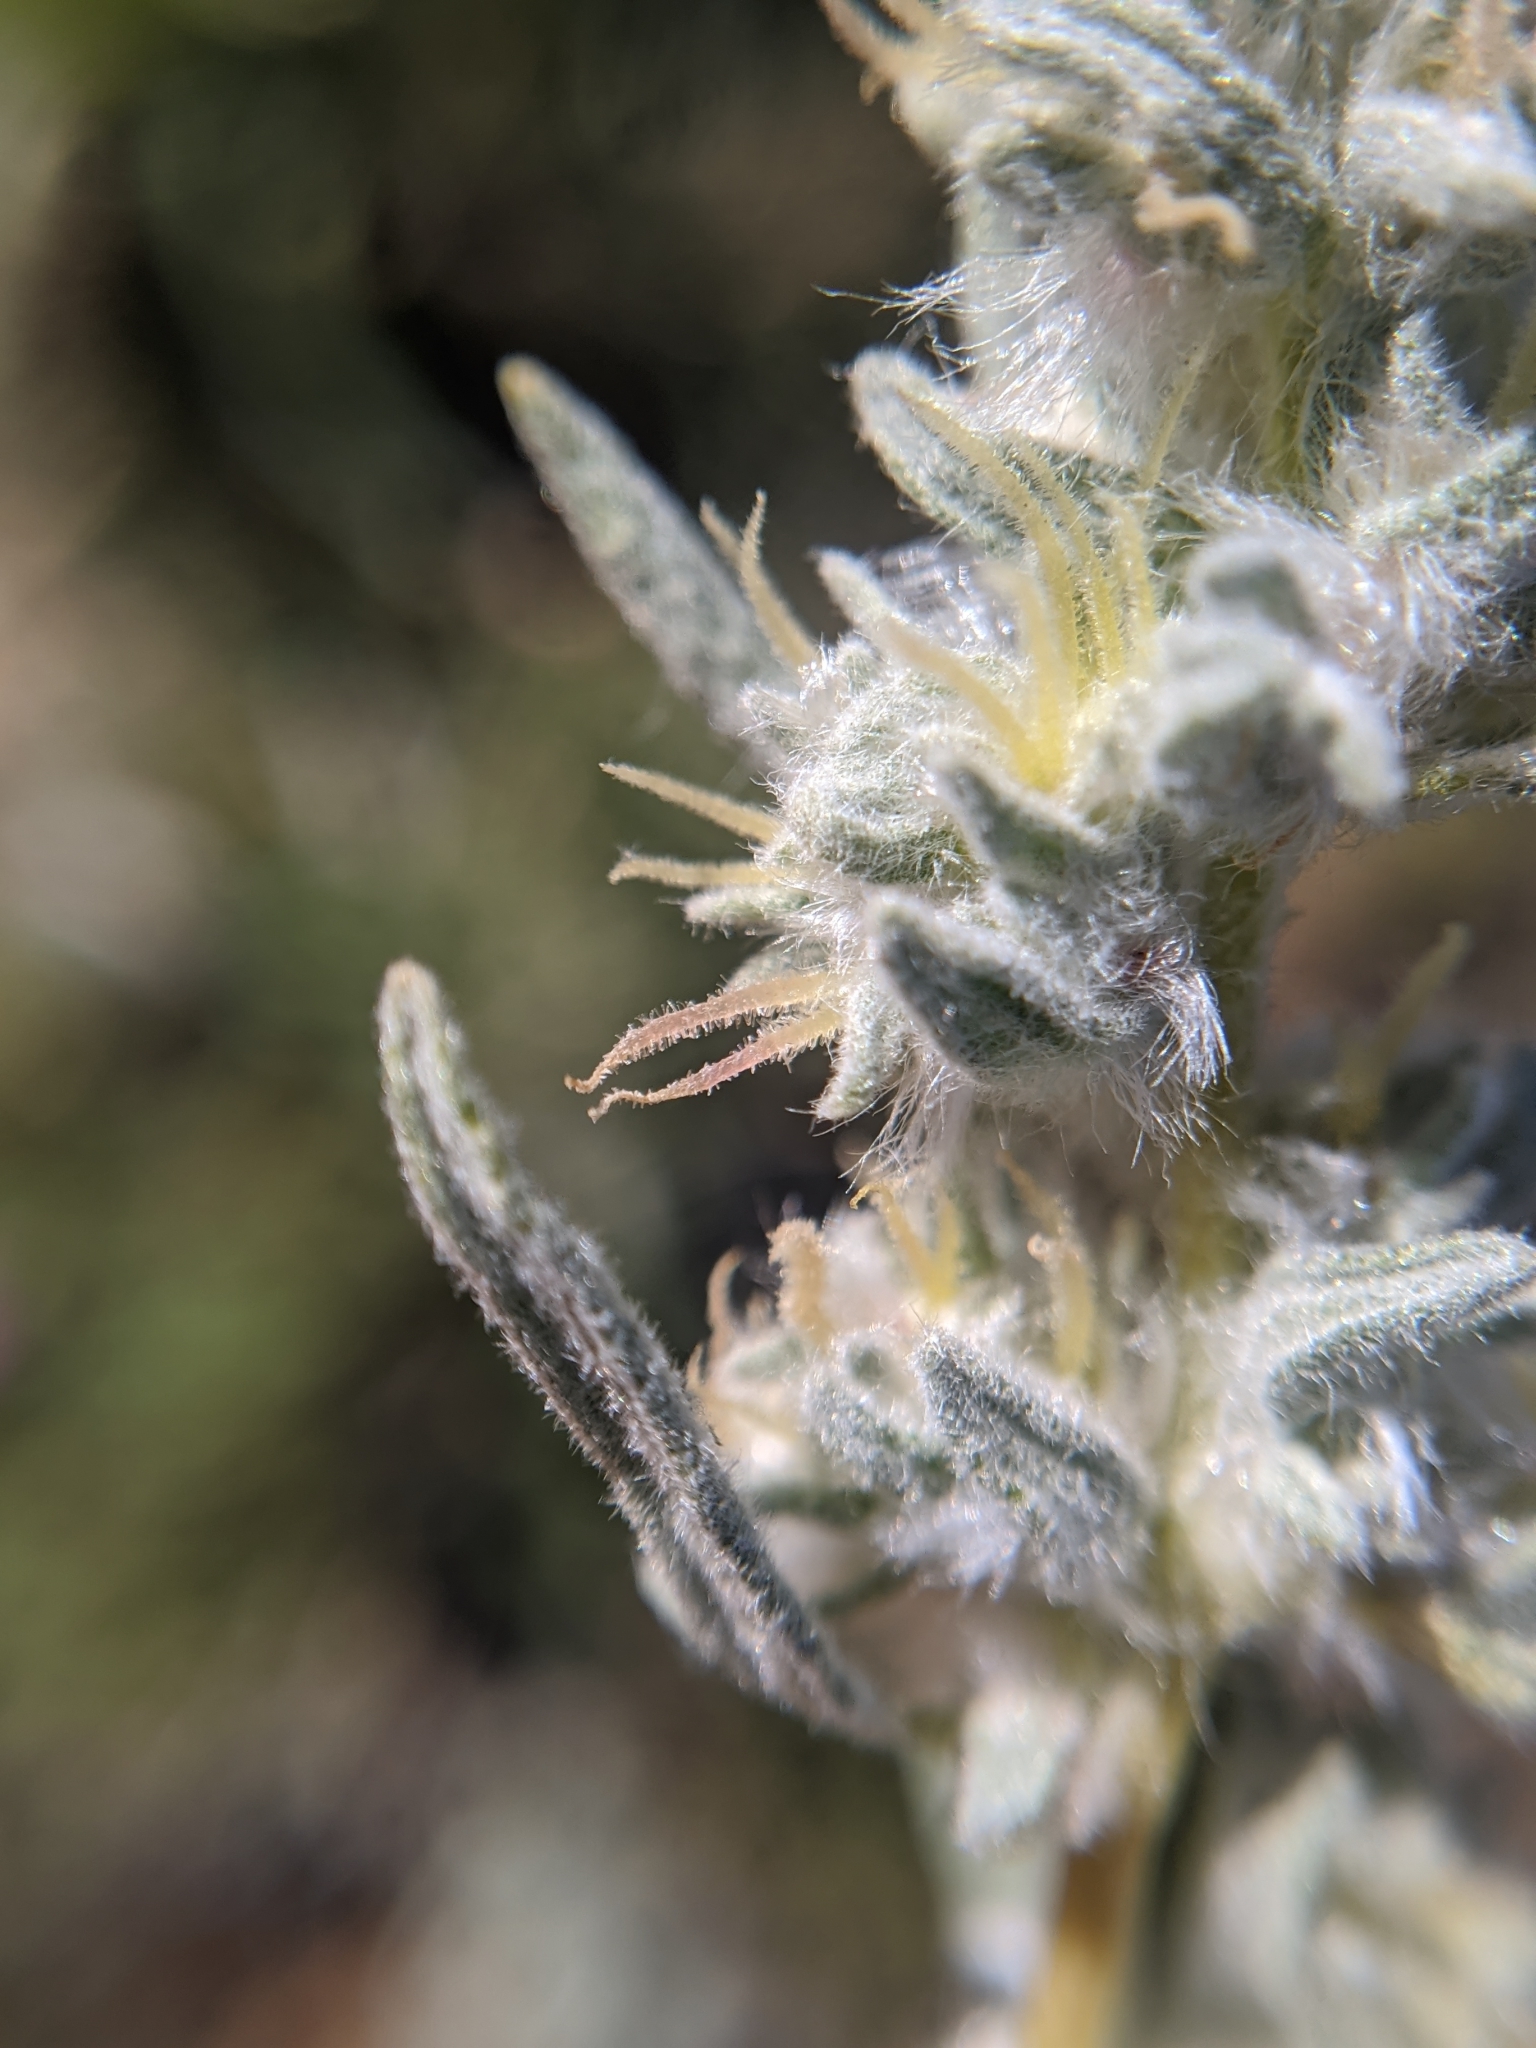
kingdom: Plantae
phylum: Tracheophyta
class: Magnoliopsida
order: Caryophyllales
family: Amaranthaceae
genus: Krascheninnikovia
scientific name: Krascheninnikovia lanata
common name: Winterfat
